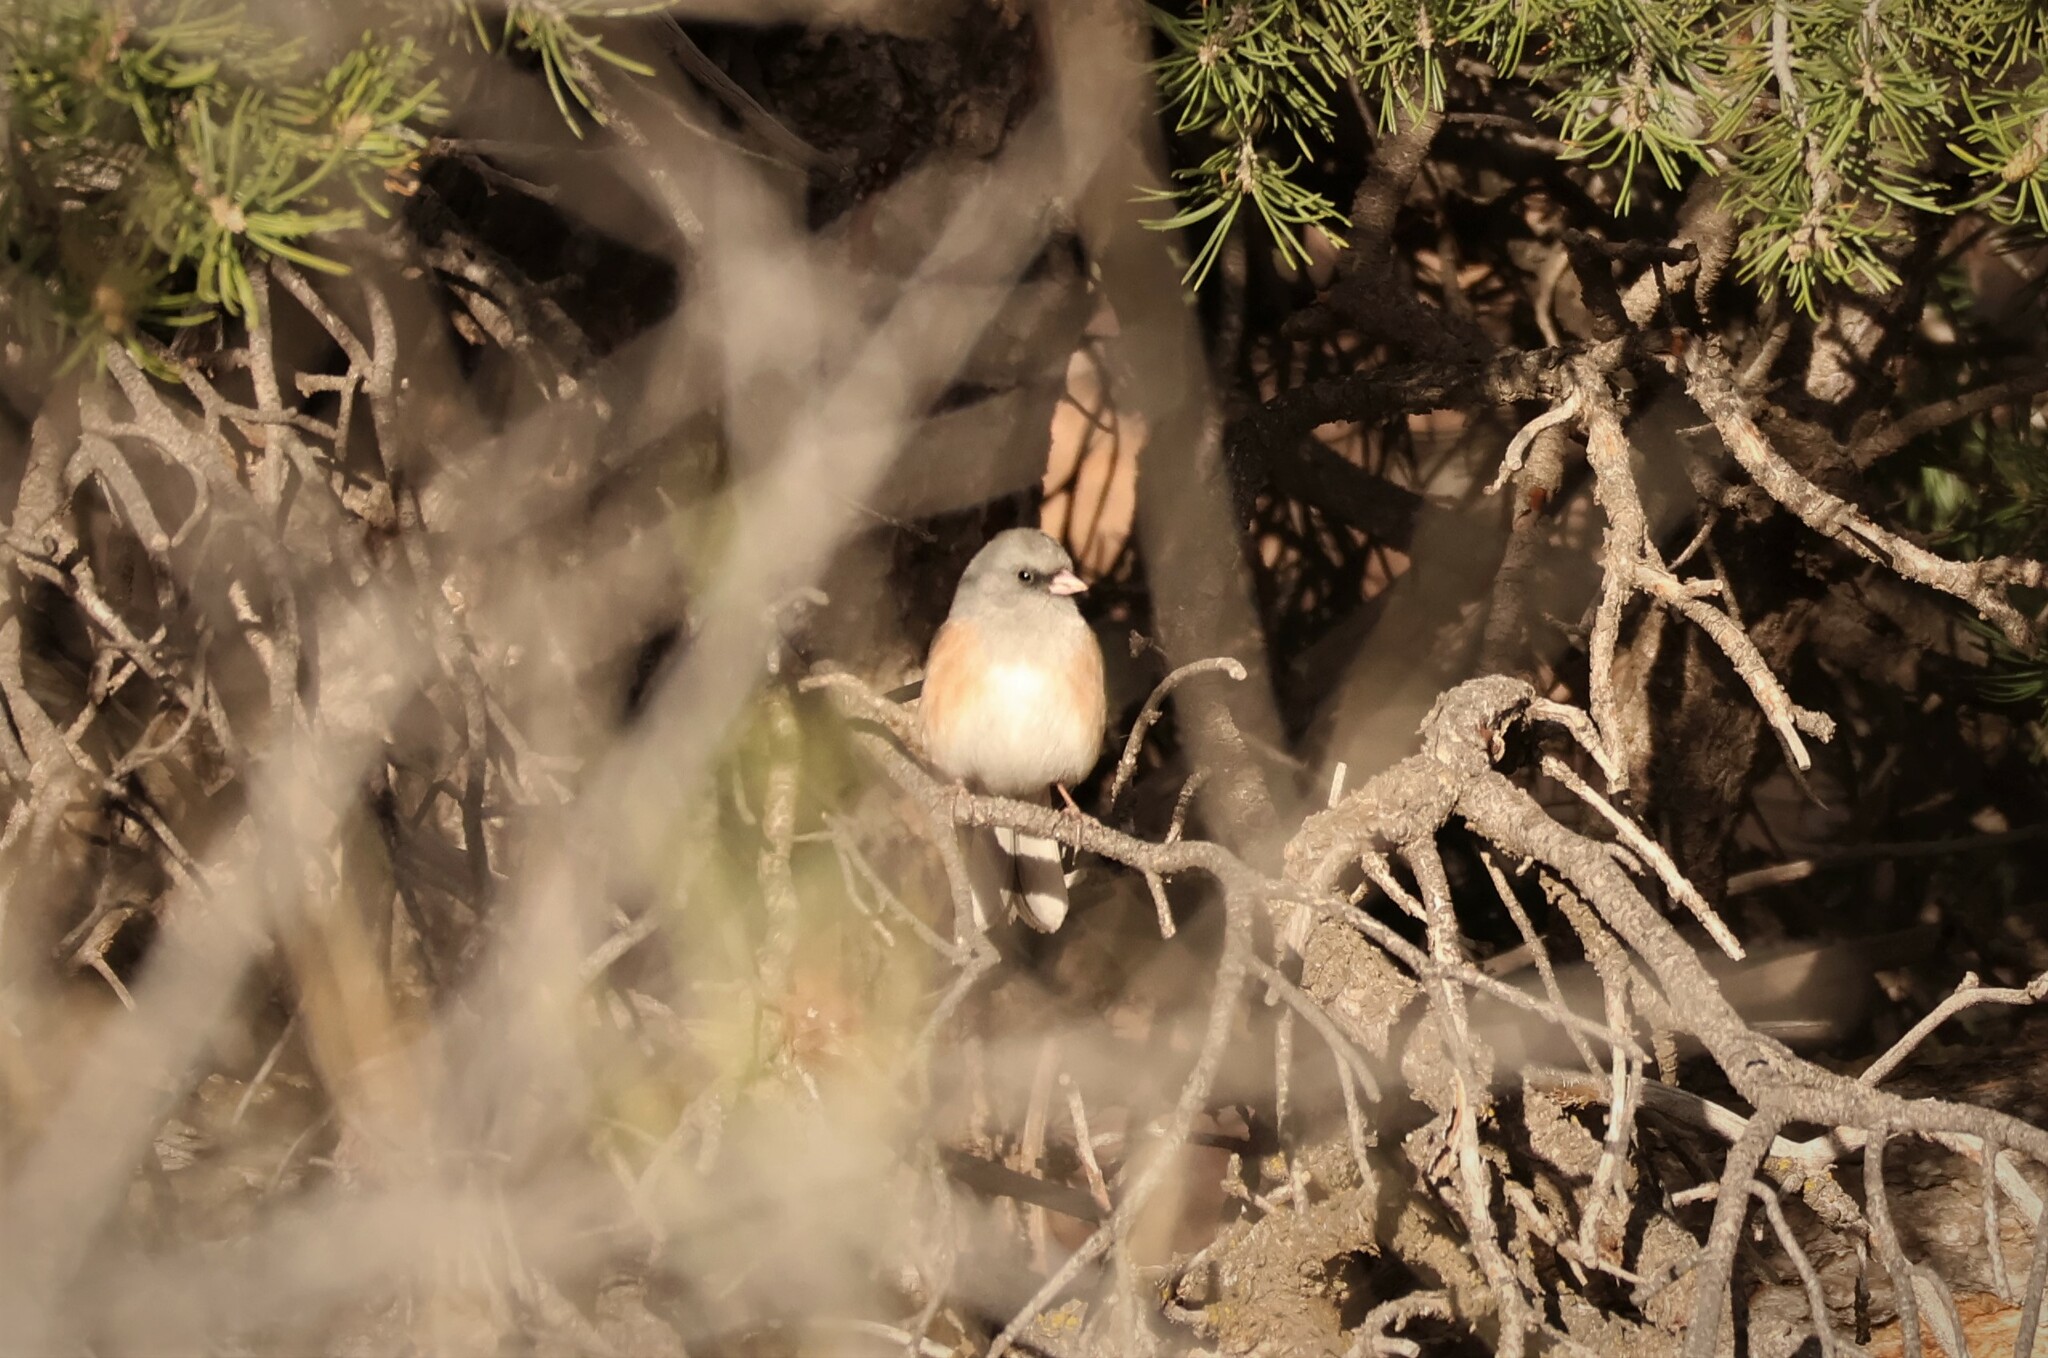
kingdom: Animalia
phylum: Chordata
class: Aves
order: Passeriformes
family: Passerellidae
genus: Junco
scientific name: Junco hyemalis
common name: Dark-eyed junco
